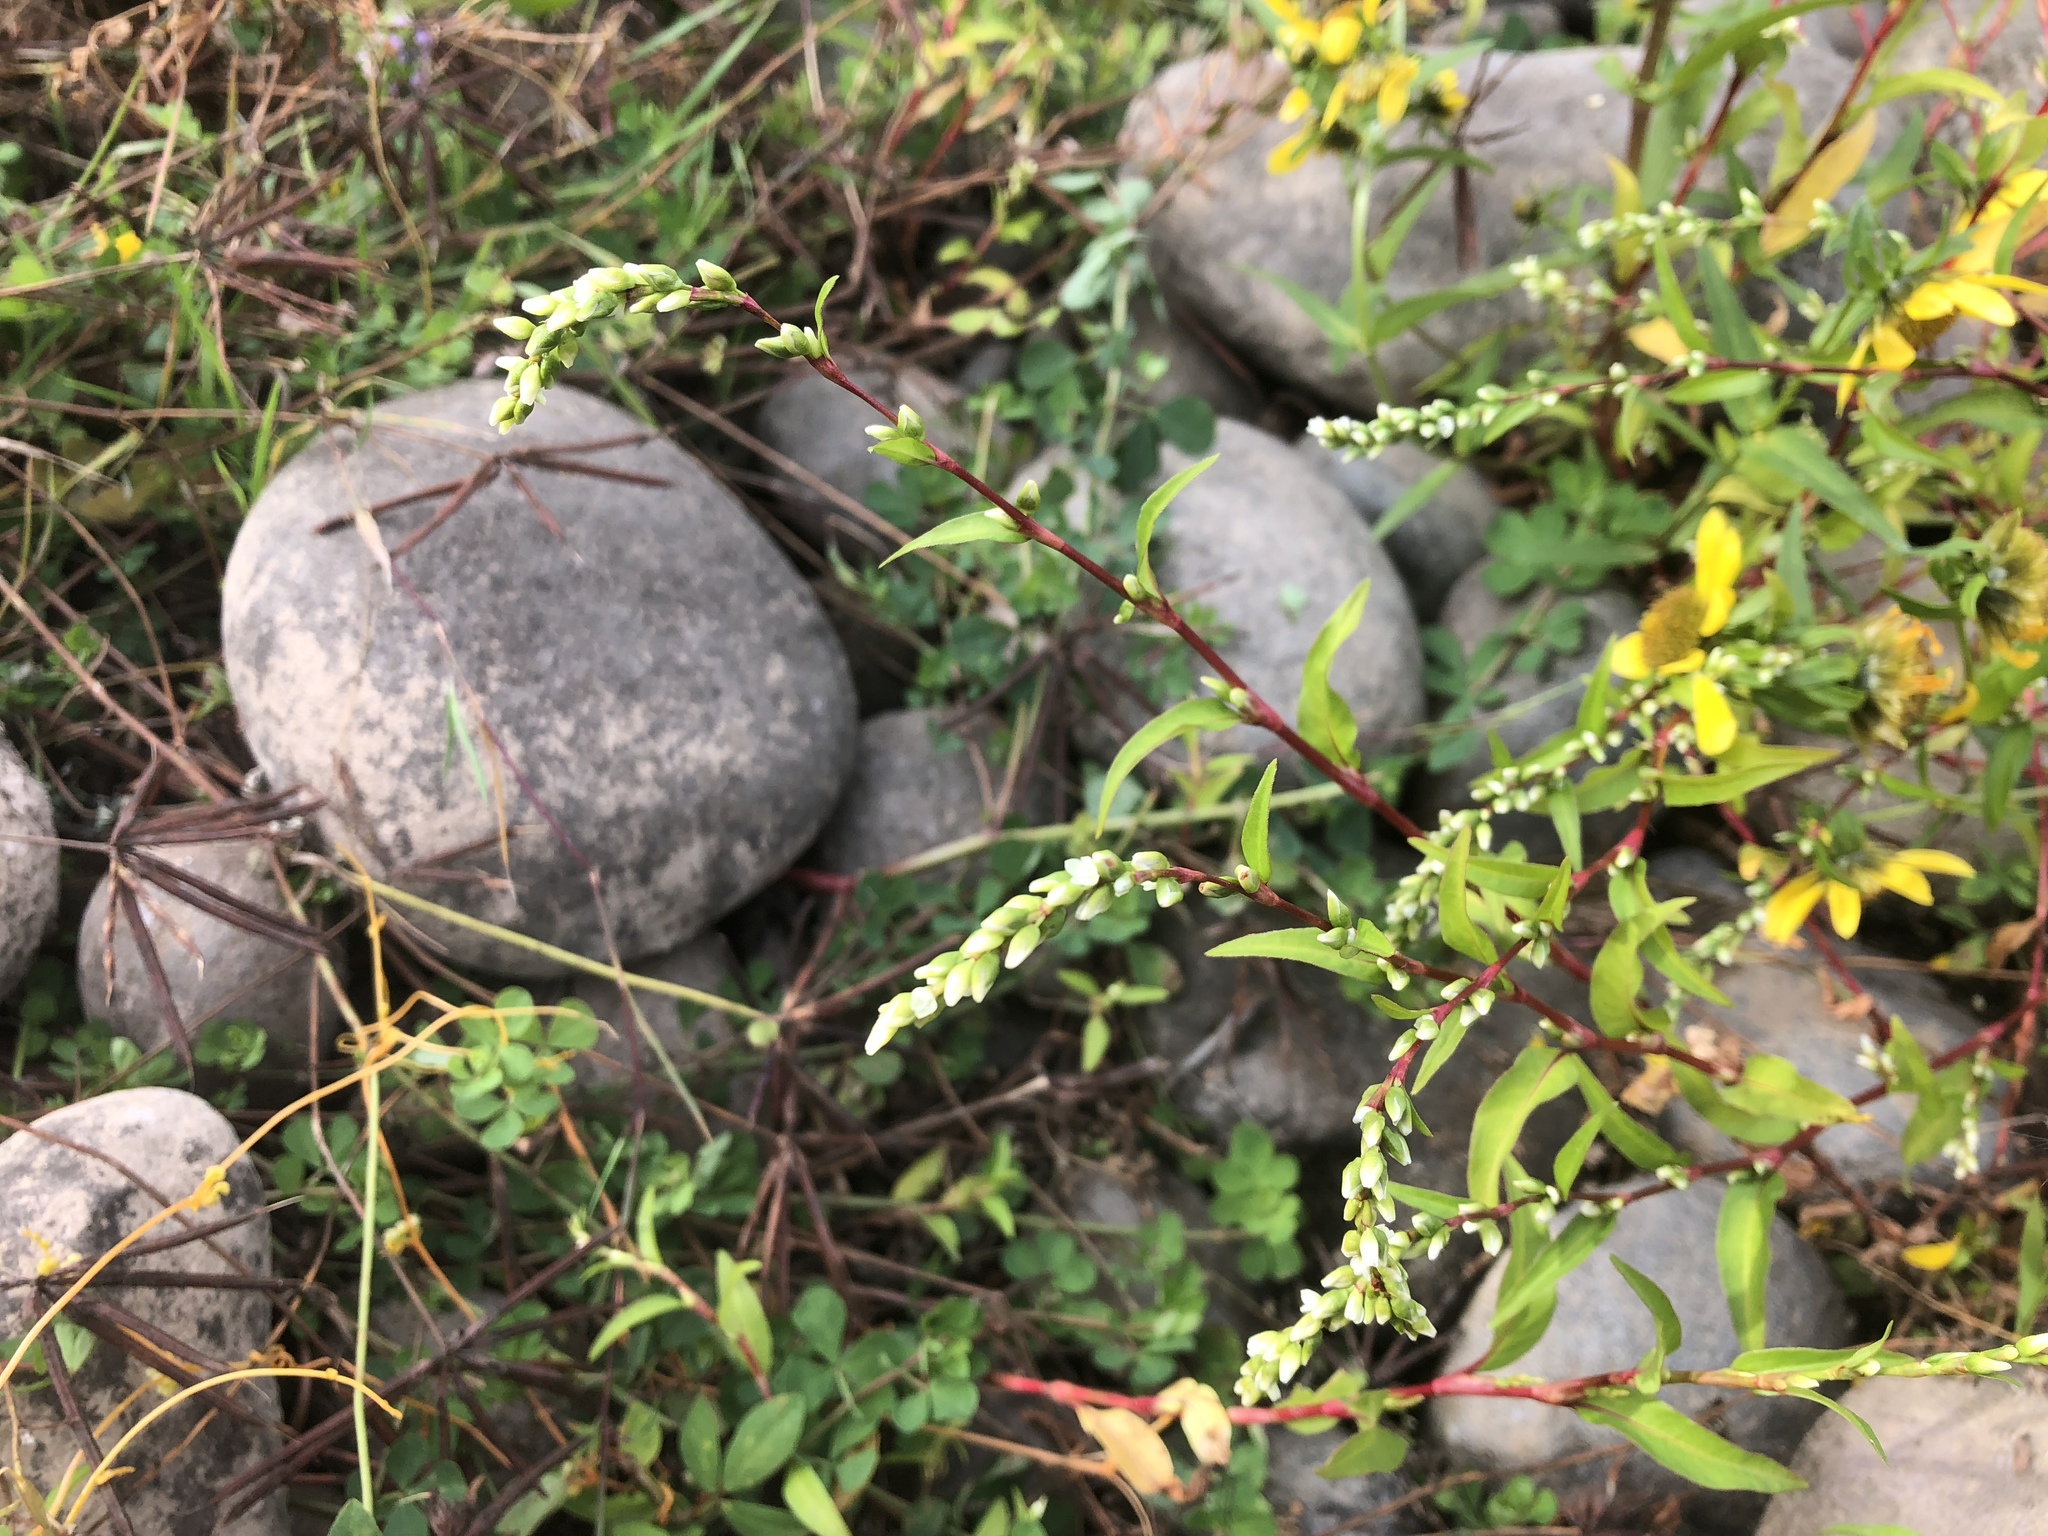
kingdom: Plantae
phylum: Tracheophyta
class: Magnoliopsida
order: Caryophyllales
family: Polygonaceae
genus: Persicaria
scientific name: Persicaria hydropiper
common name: Water-pepper
